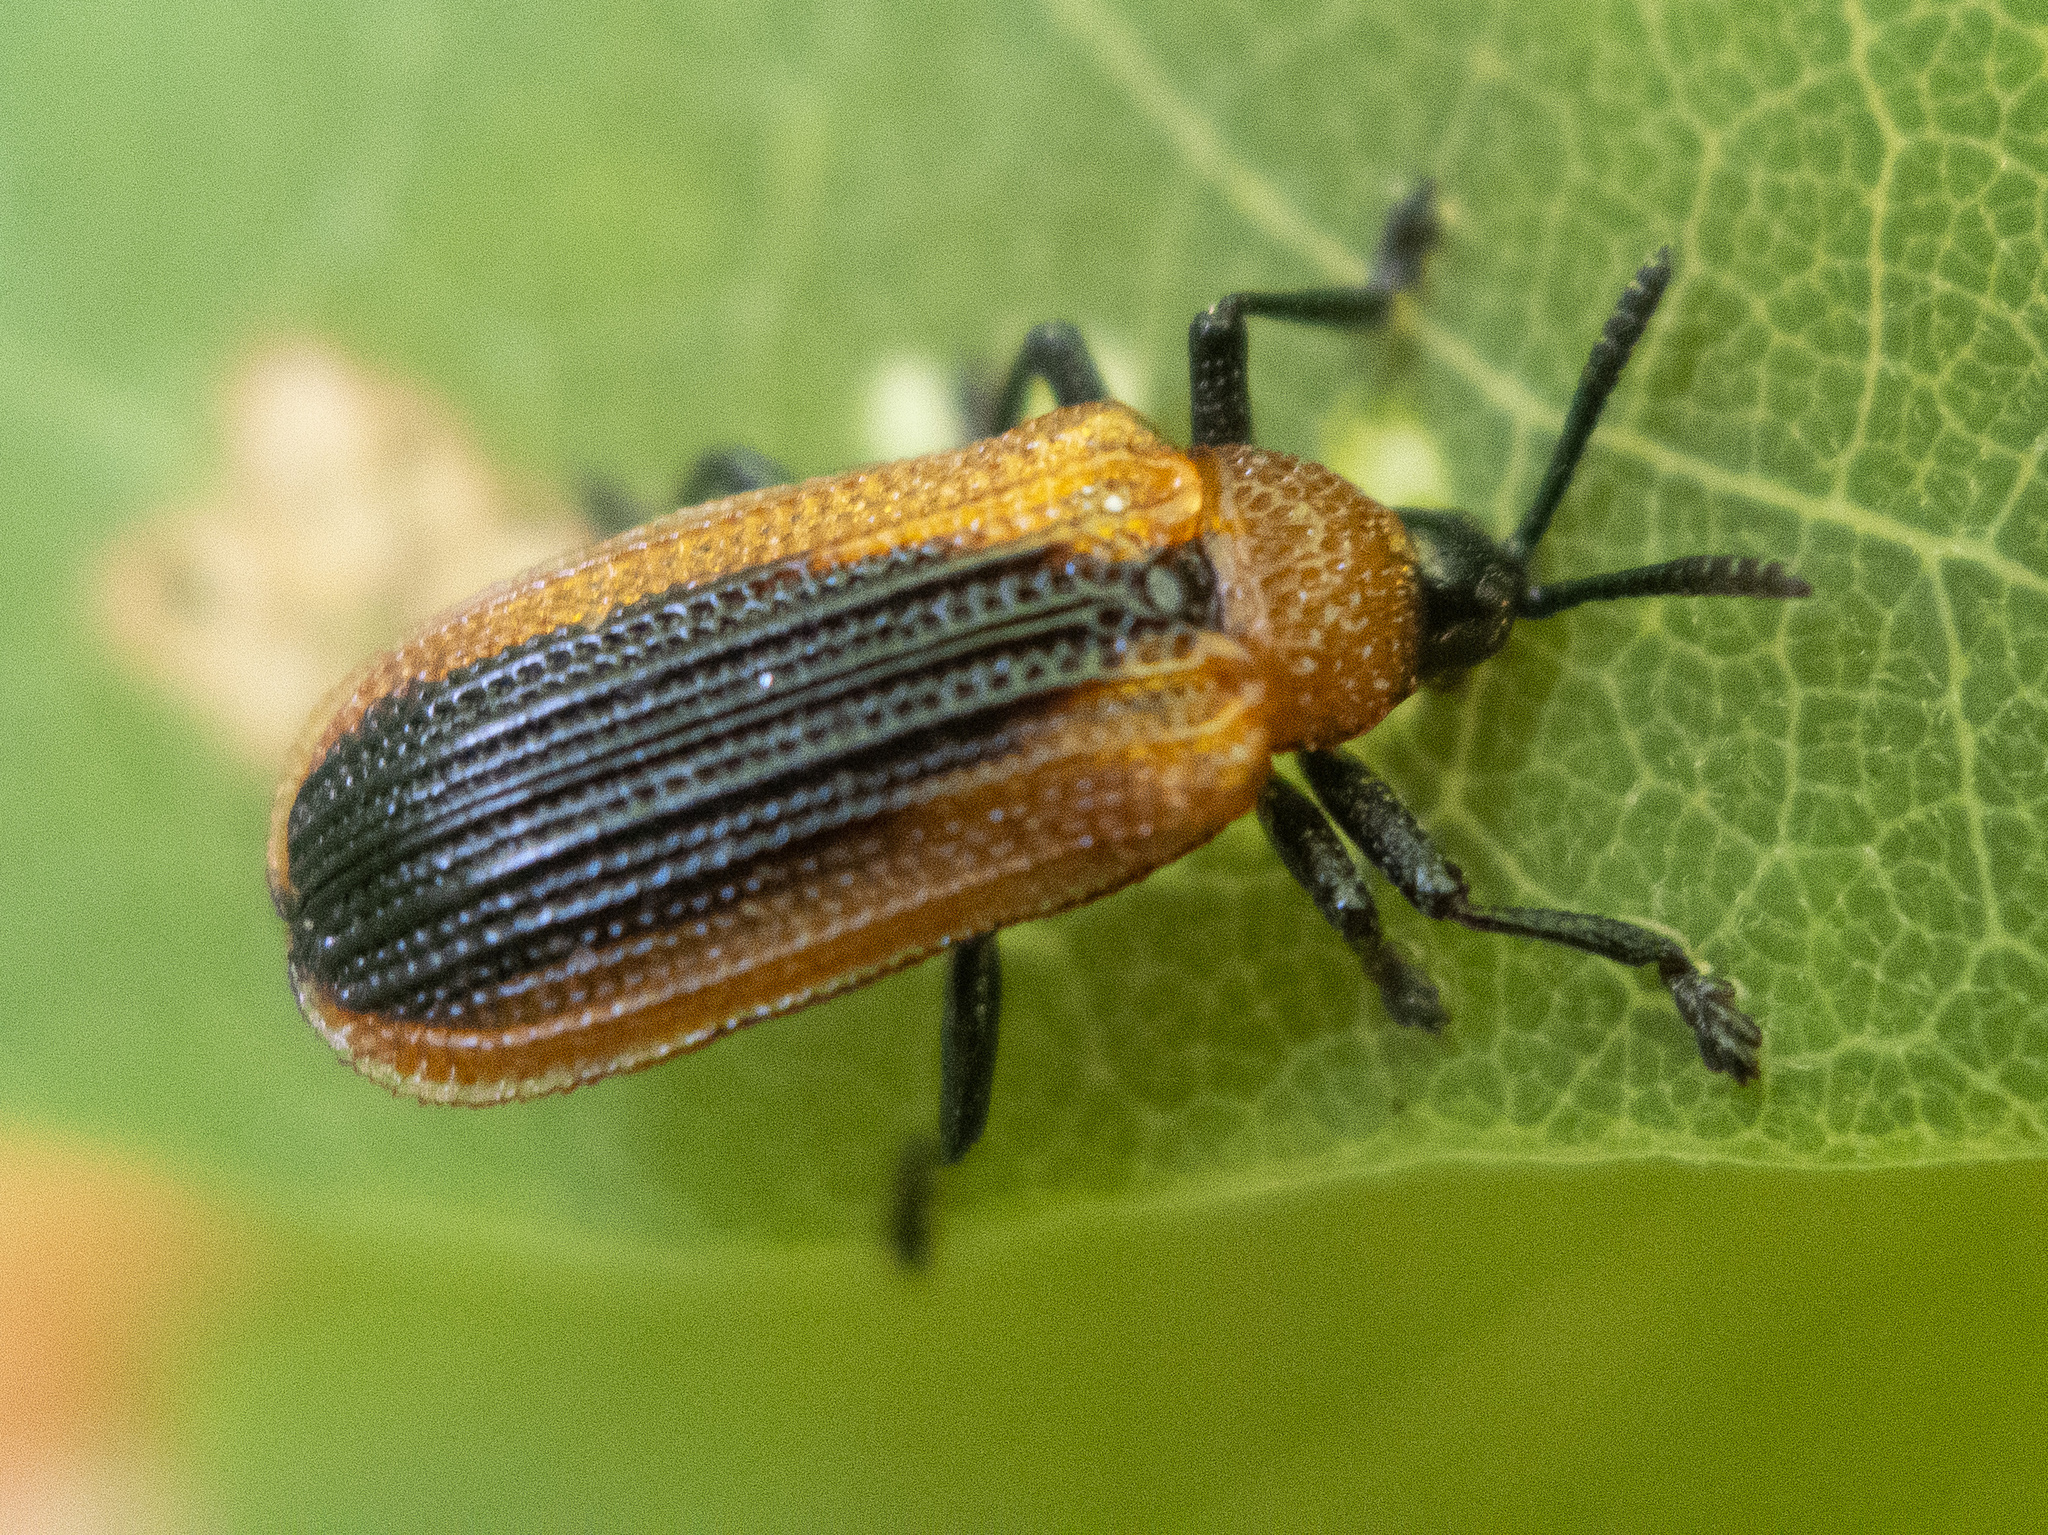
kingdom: Animalia
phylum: Arthropoda
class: Insecta
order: Coleoptera
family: Chrysomelidae
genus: Odontota
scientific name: Odontota dorsalis
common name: Locust leaf-miner beetle
